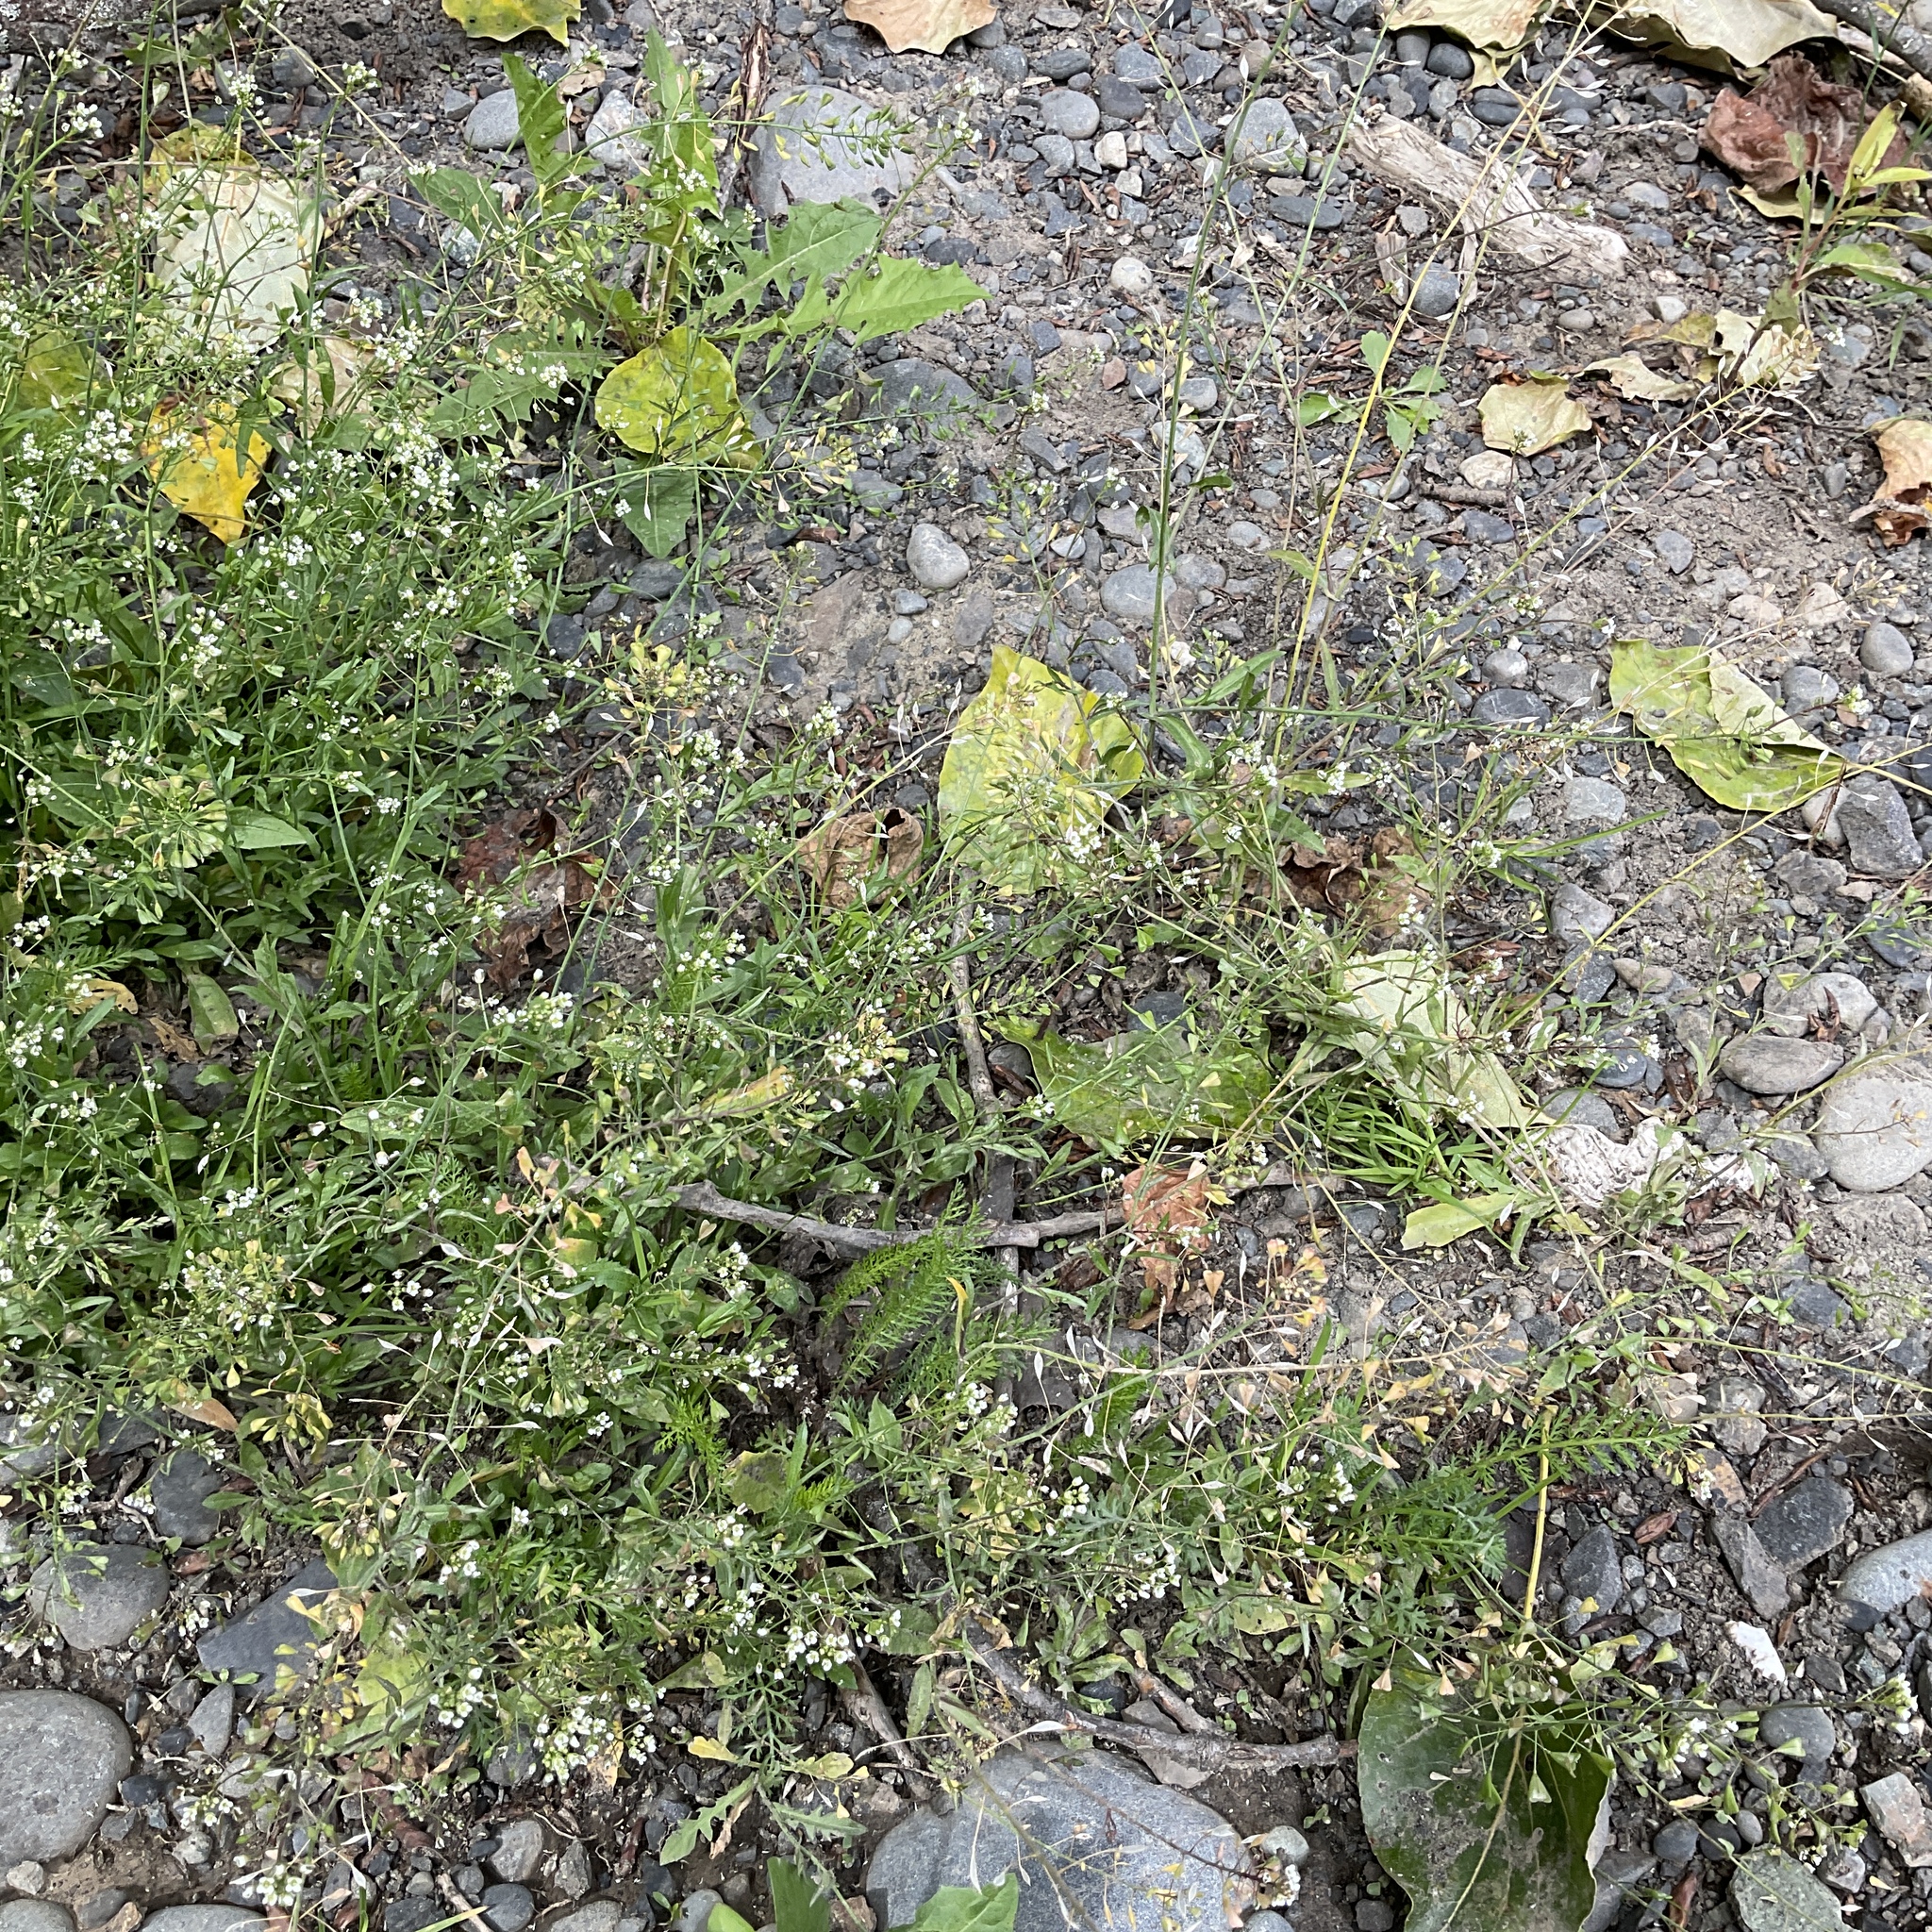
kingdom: Plantae
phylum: Tracheophyta
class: Magnoliopsida
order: Brassicales
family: Brassicaceae
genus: Capsella
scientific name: Capsella bursa-pastoris
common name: Shepherd's purse
